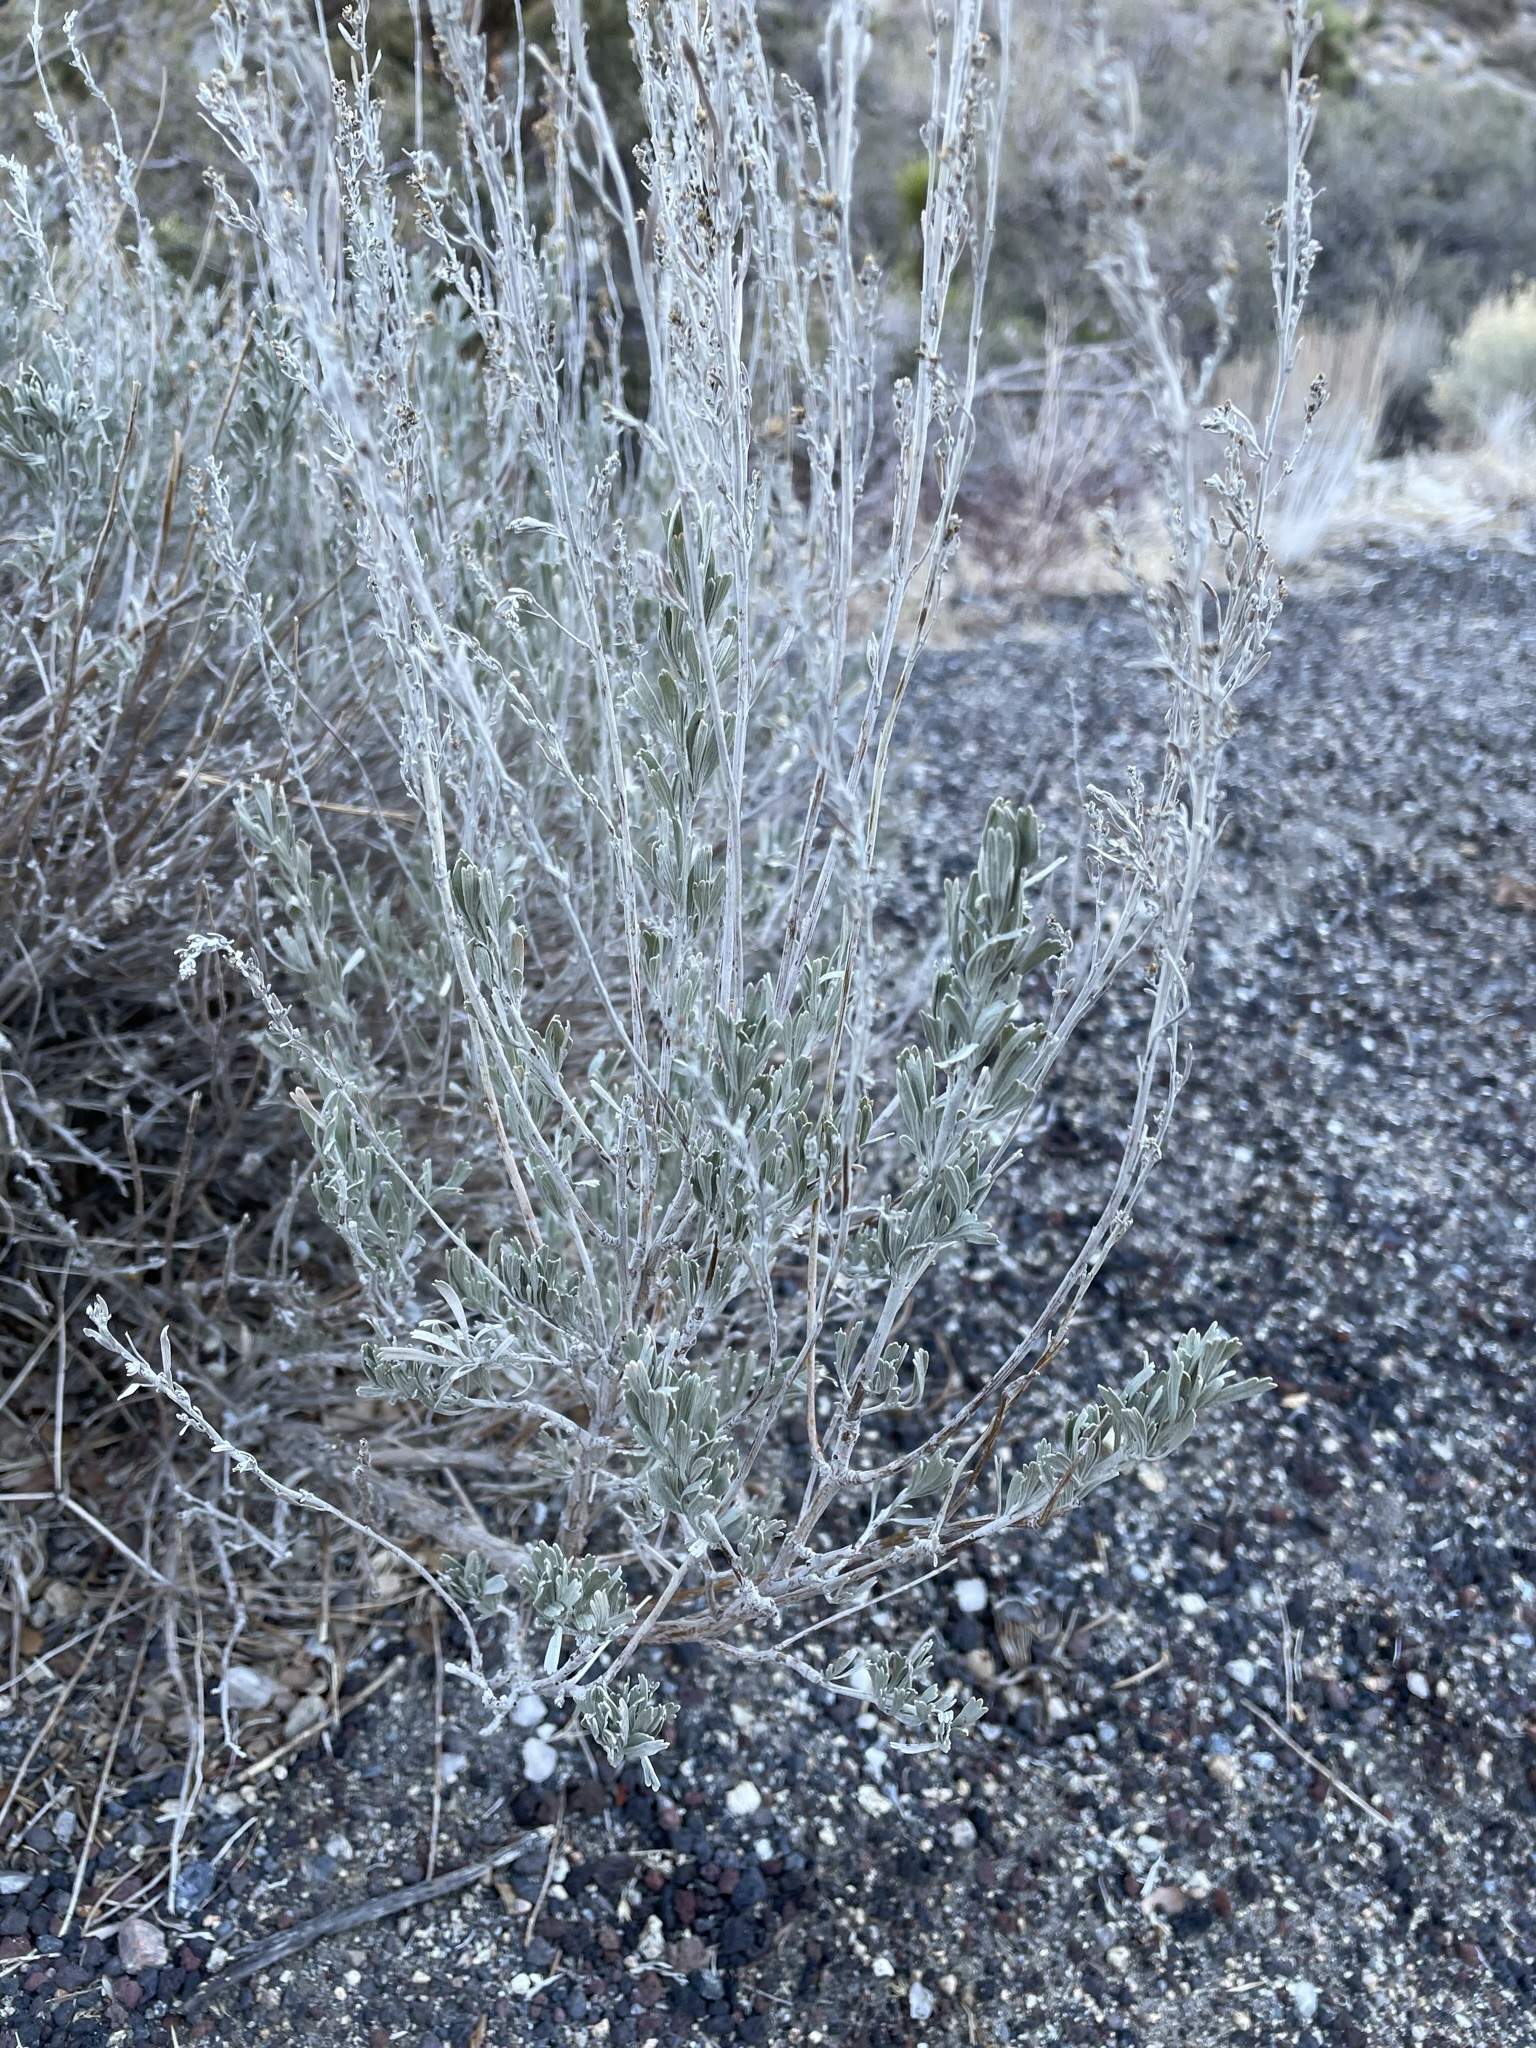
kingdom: Plantae
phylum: Tracheophyta
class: Magnoliopsida
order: Asterales
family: Asteraceae
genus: Artemisia
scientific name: Artemisia tridentata
